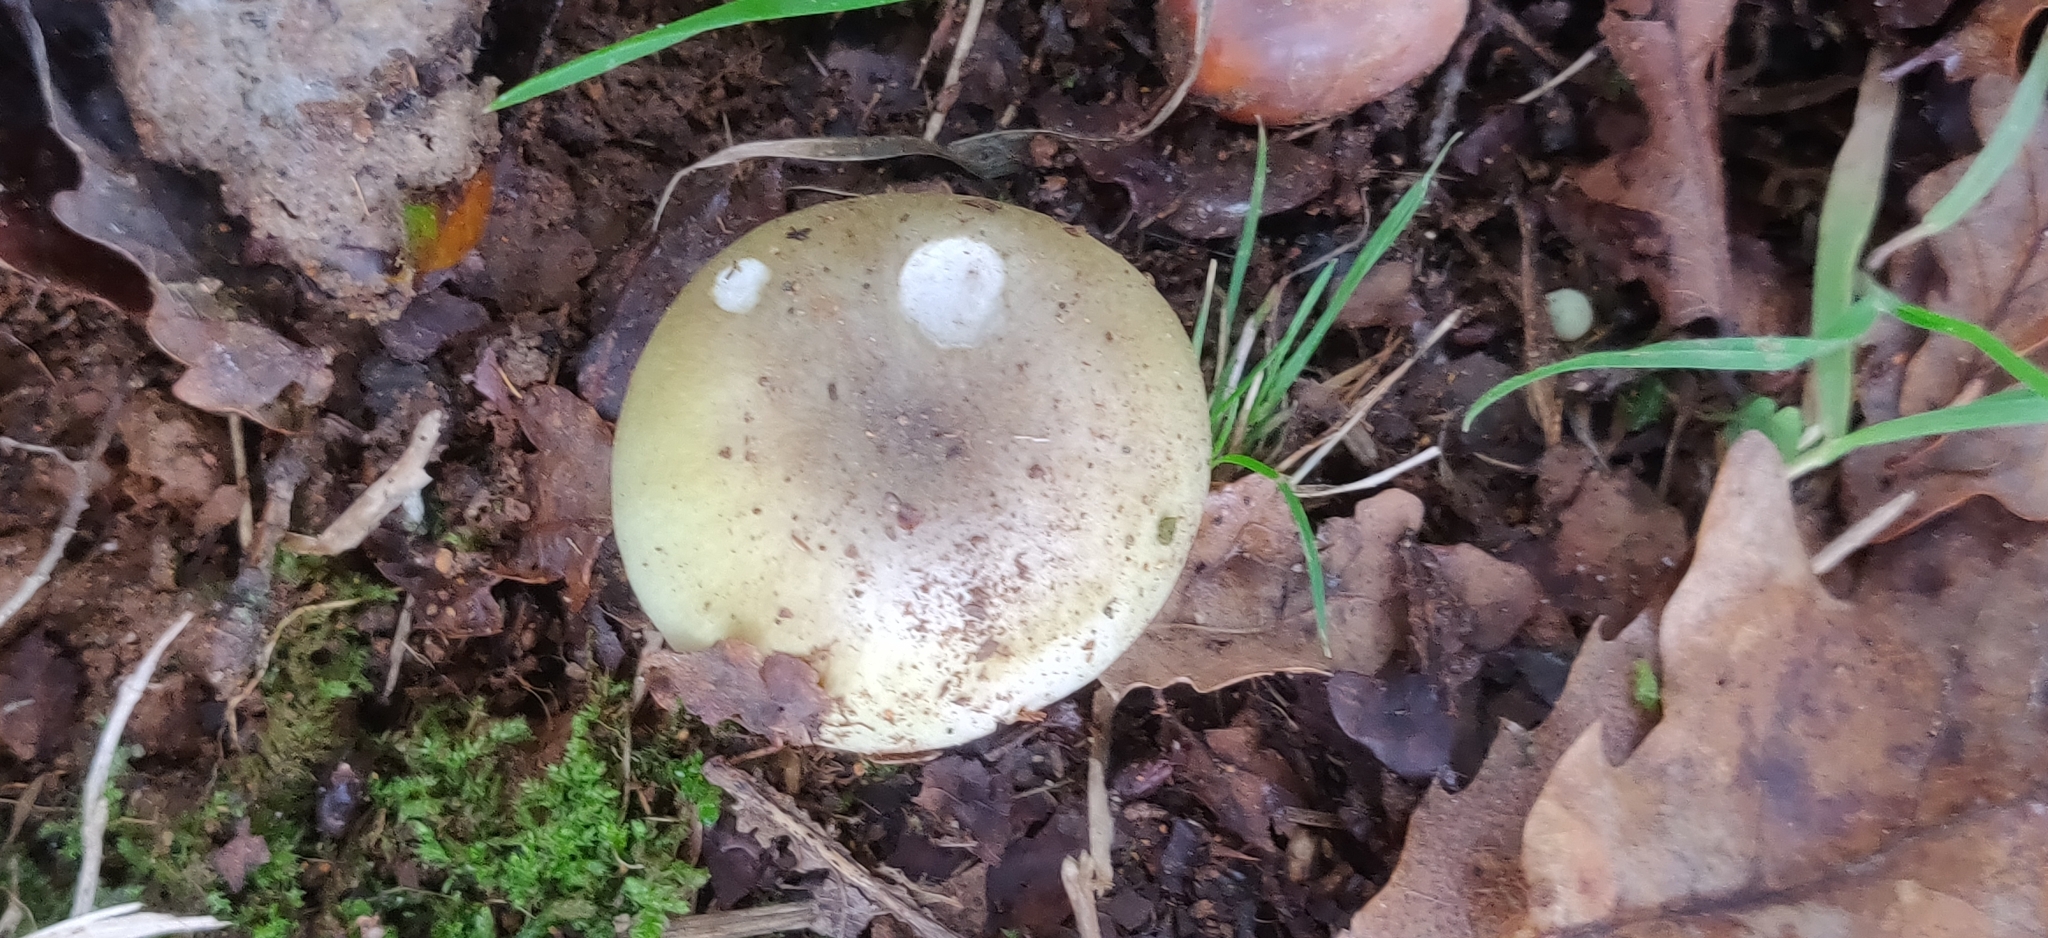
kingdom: Fungi
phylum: Basidiomycota
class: Agaricomycetes
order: Agaricales
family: Amanitaceae
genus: Amanita
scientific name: Amanita phalloides
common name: Death cap
